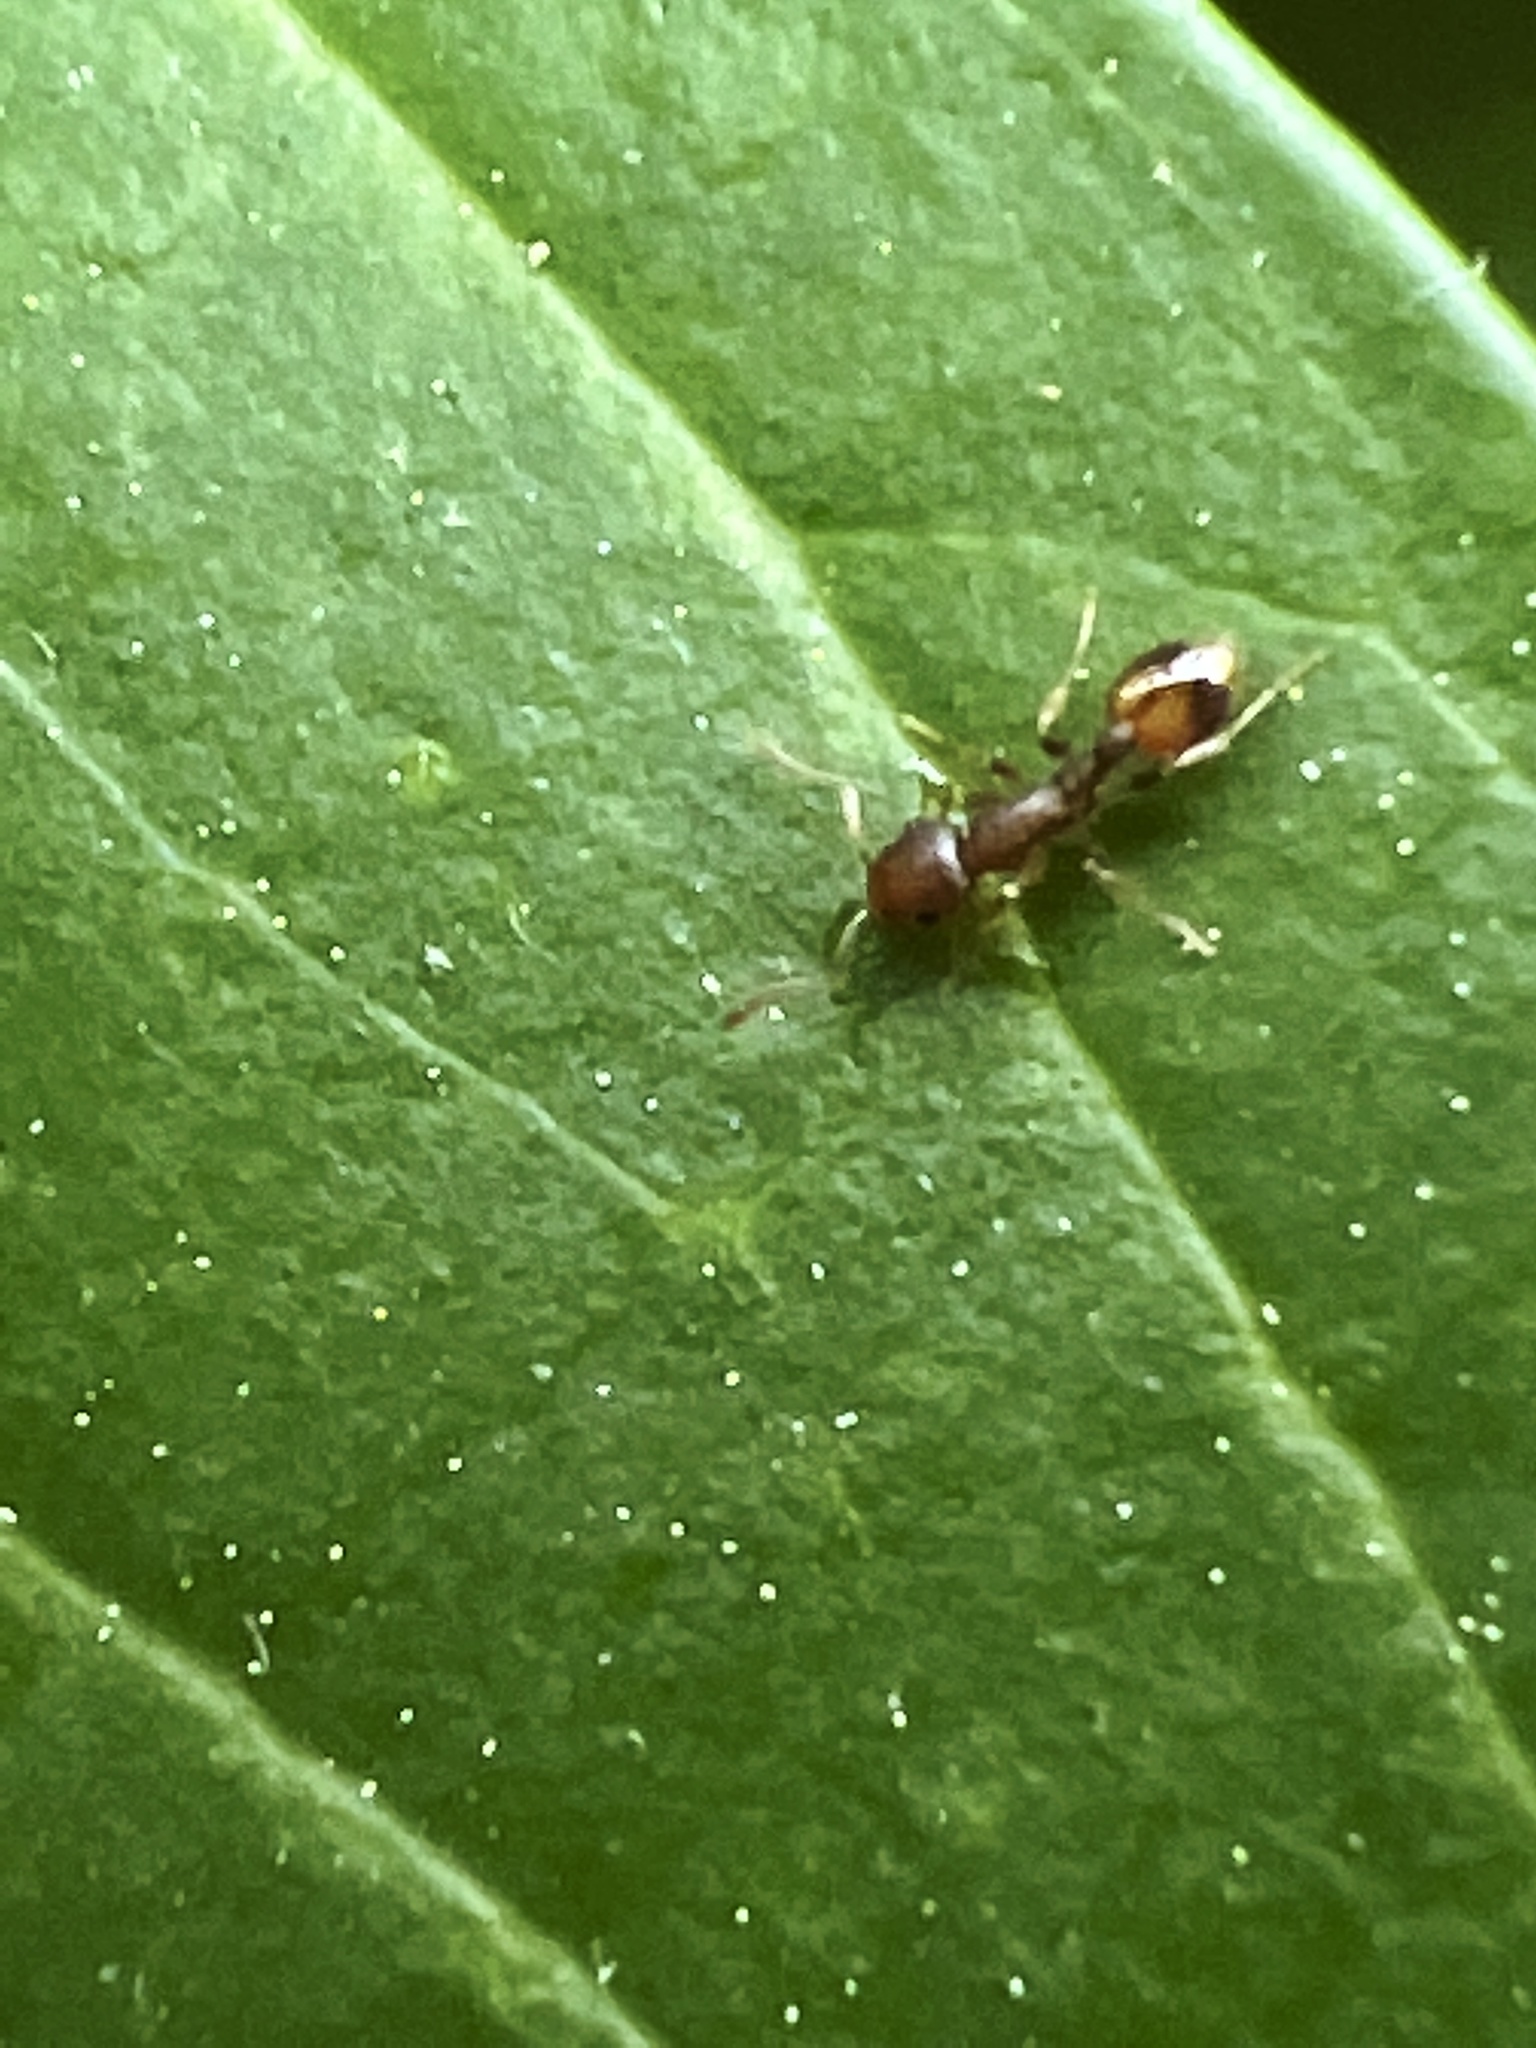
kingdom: Animalia
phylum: Arthropoda
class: Insecta
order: Hymenoptera
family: Formicidae
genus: Temnothorax
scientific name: Temnothorax curvispinosus
